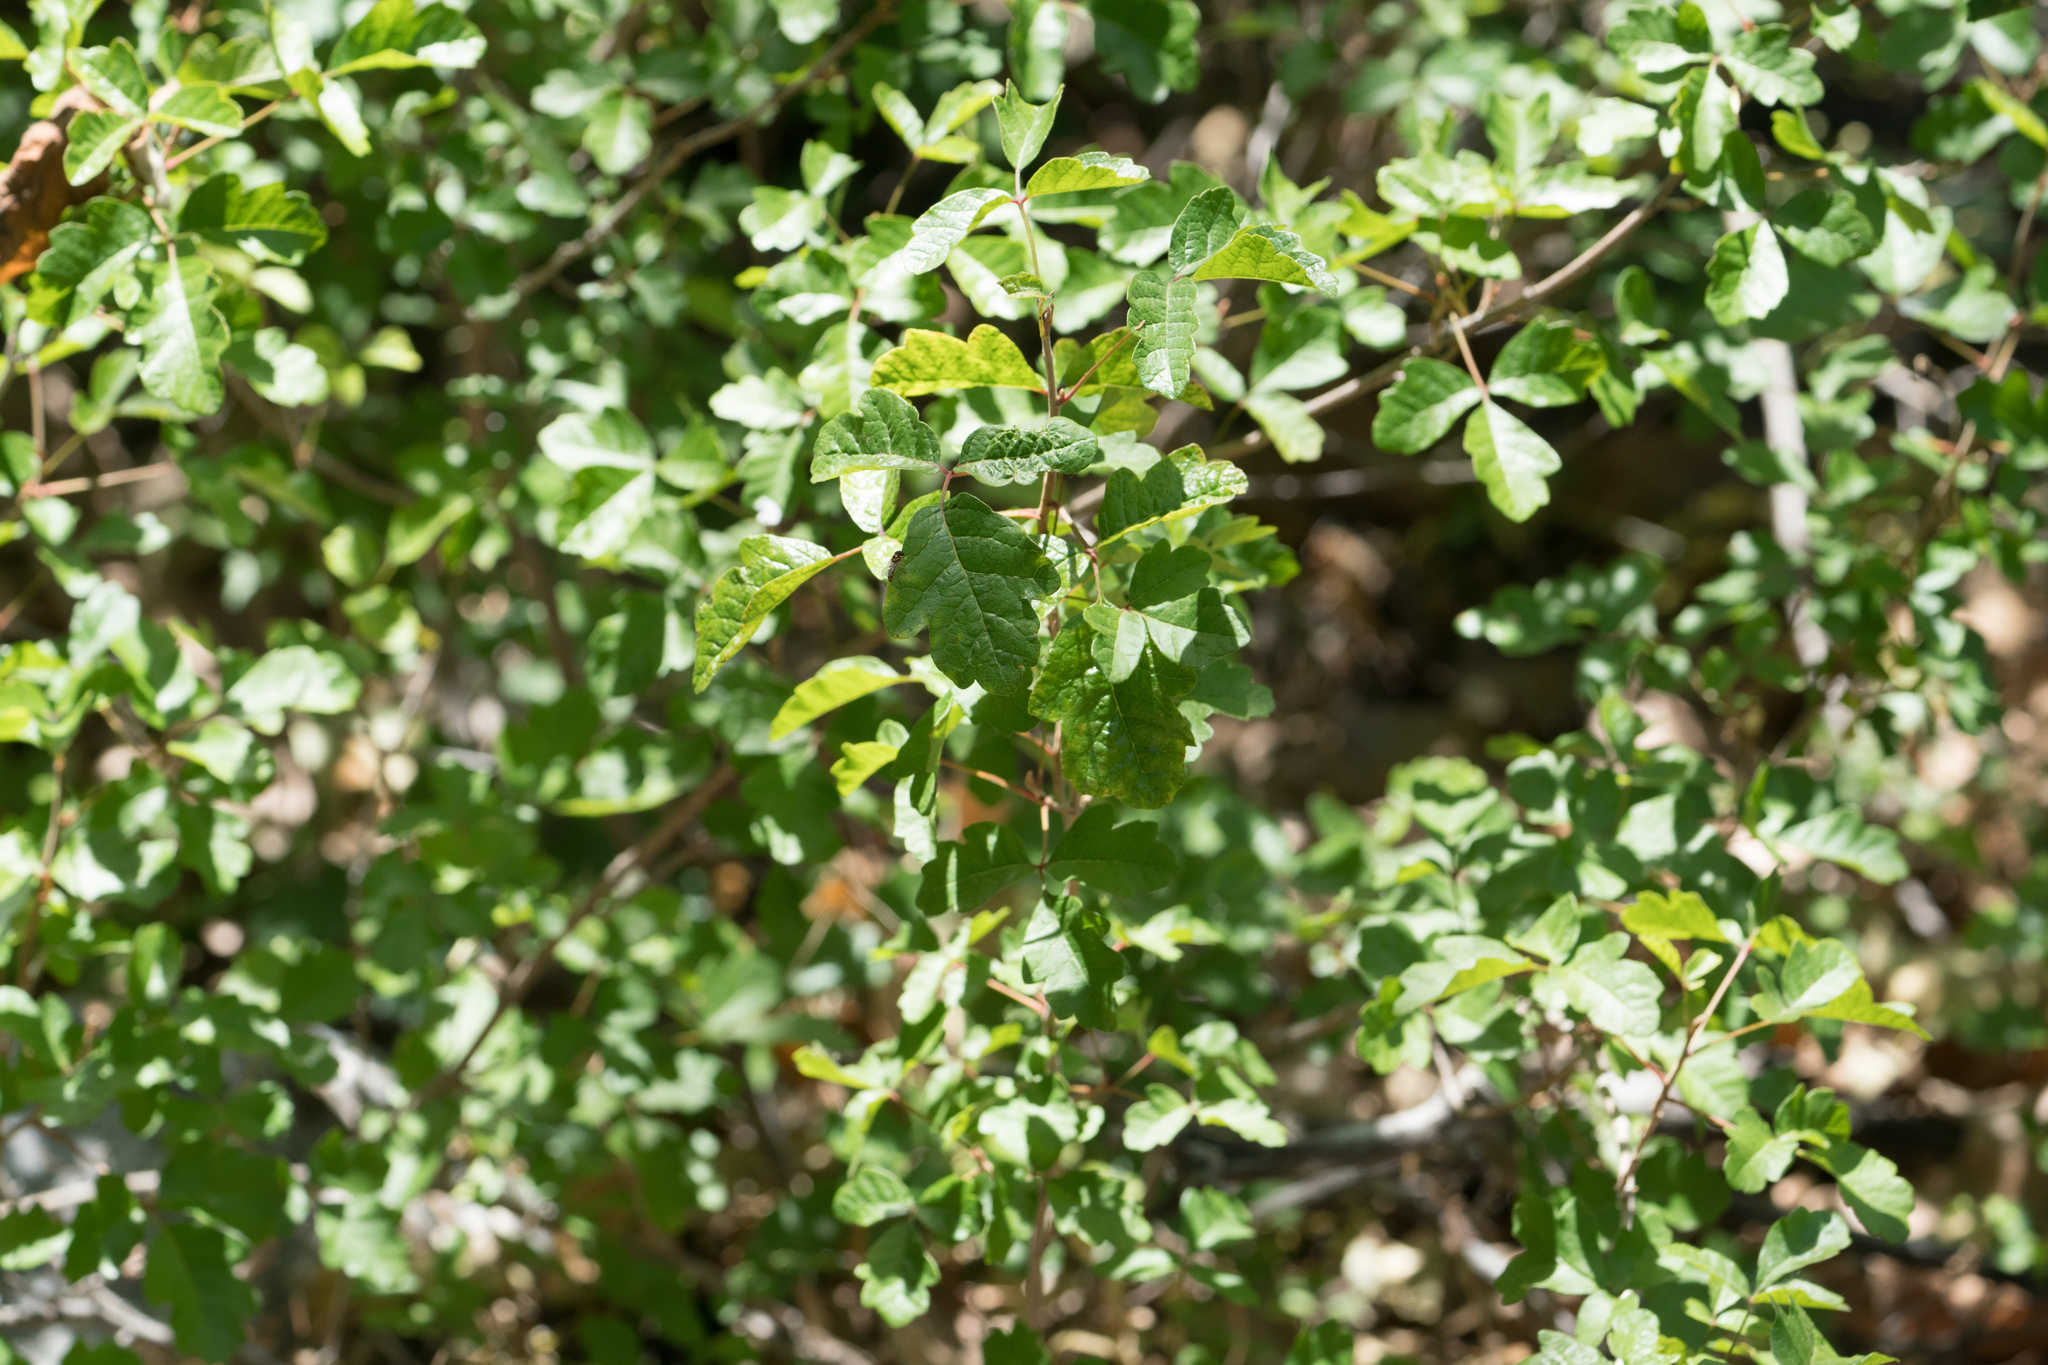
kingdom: Plantae
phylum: Tracheophyta
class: Magnoliopsida
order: Sapindales
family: Anacardiaceae
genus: Toxicodendron
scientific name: Toxicodendron diversilobum
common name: Pacific poison-oak
